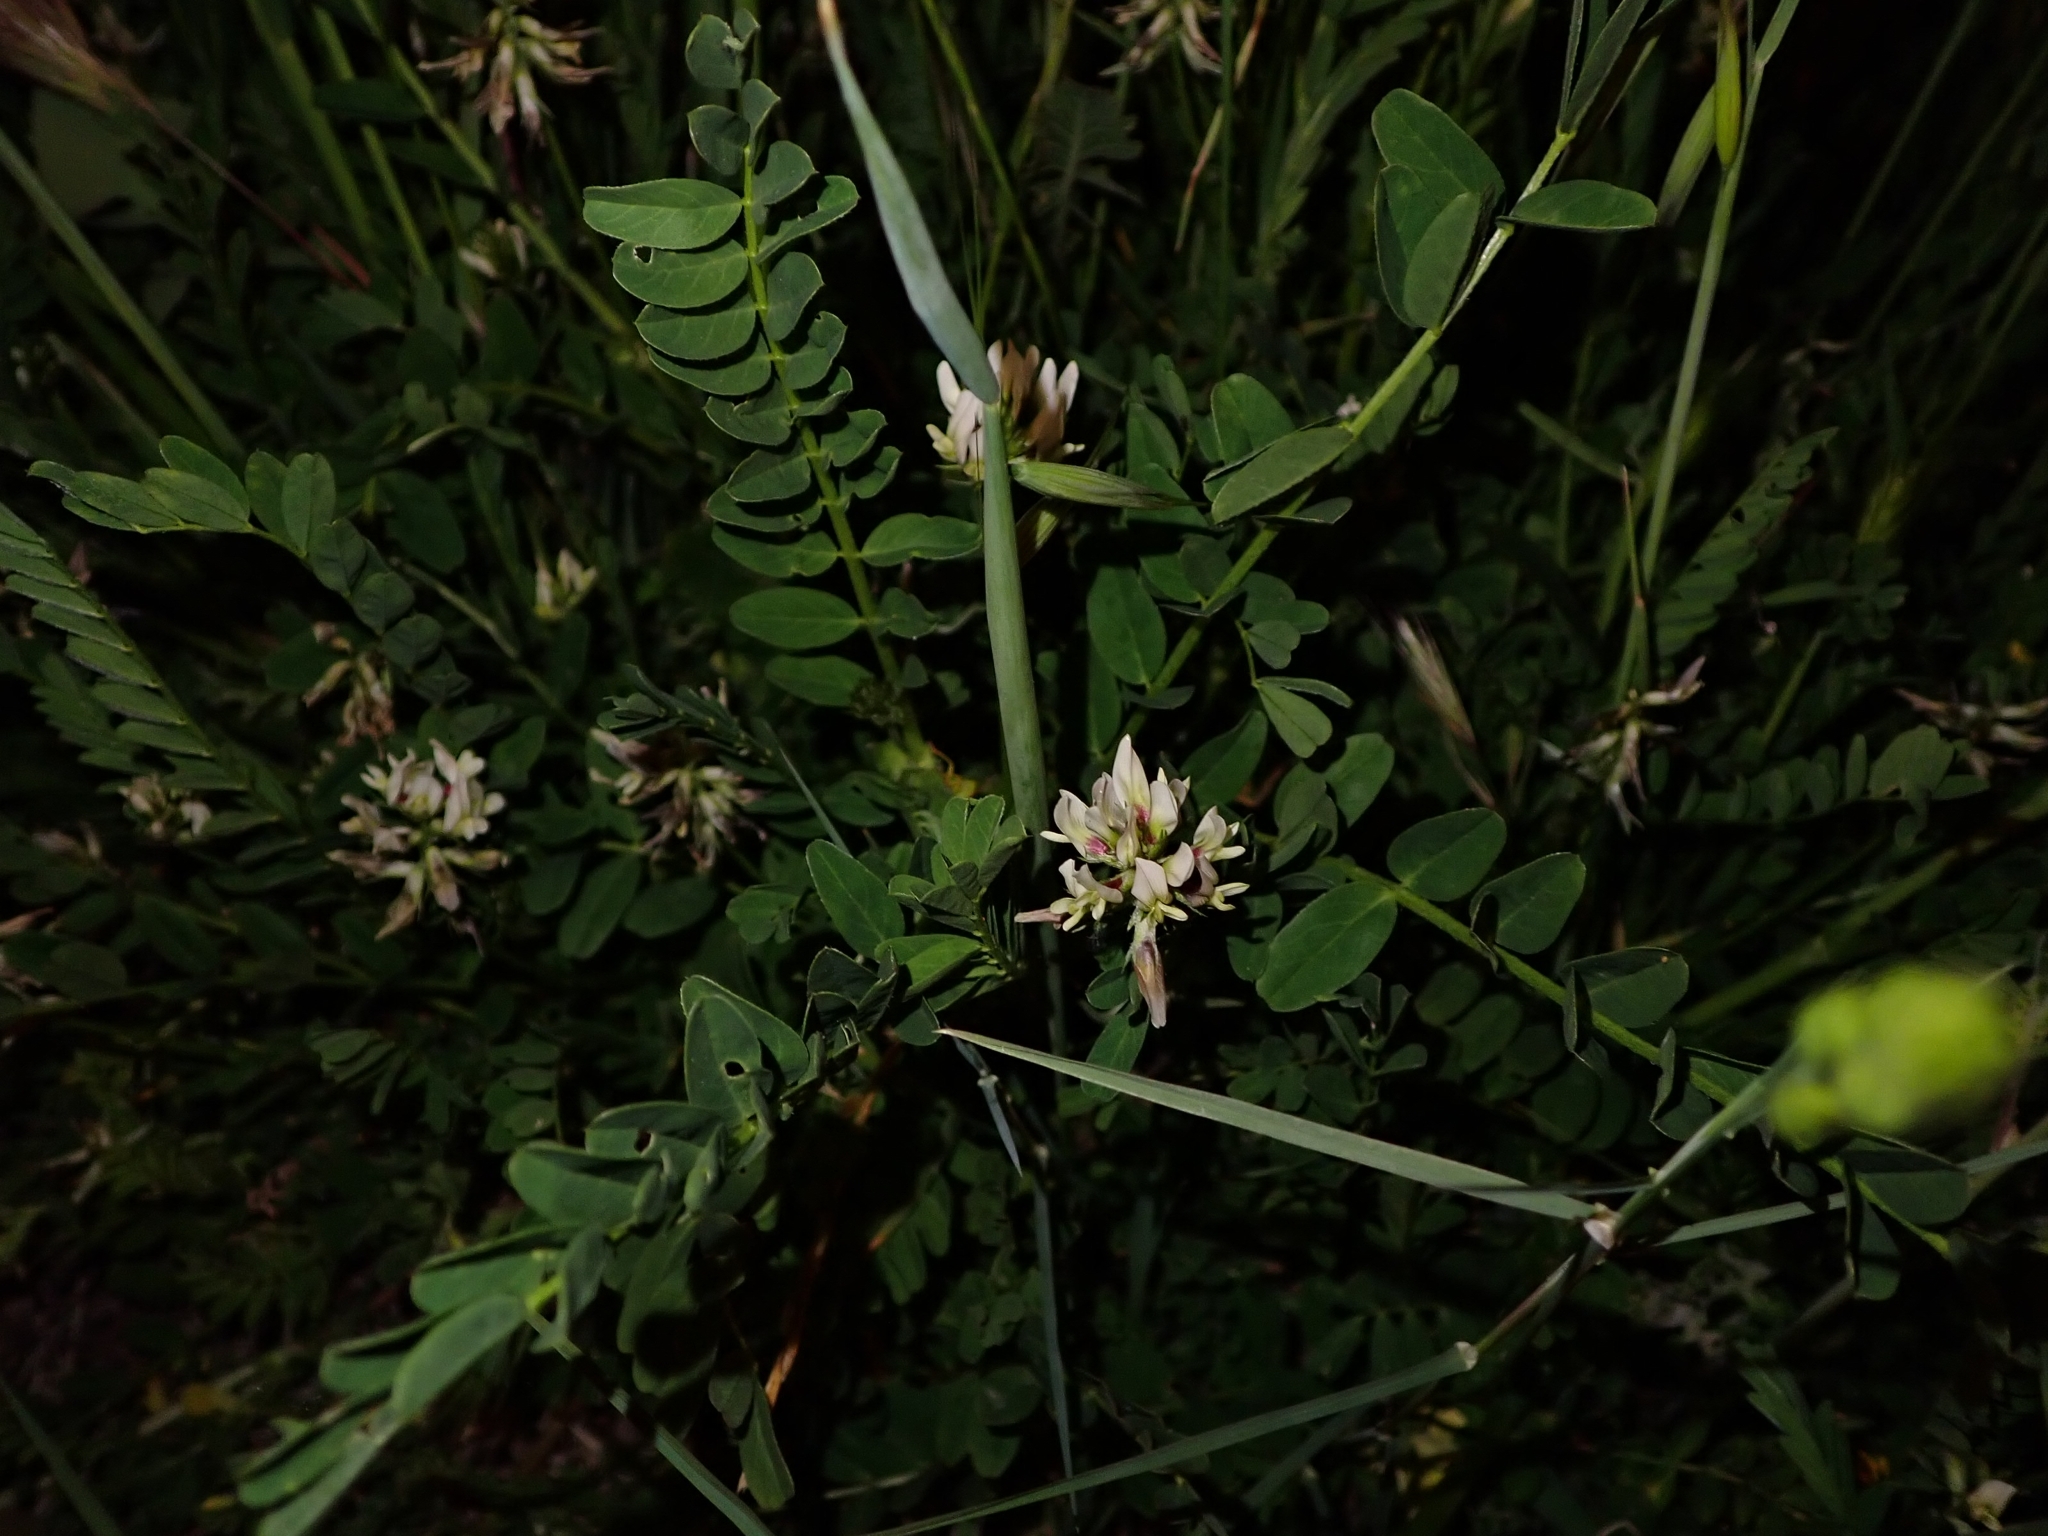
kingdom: Plantae
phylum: Tracheophyta
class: Magnoliopsida
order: Fabales
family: Fabaceae
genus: Astragalus
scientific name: Astragalus hamosus
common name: European milkvetch
